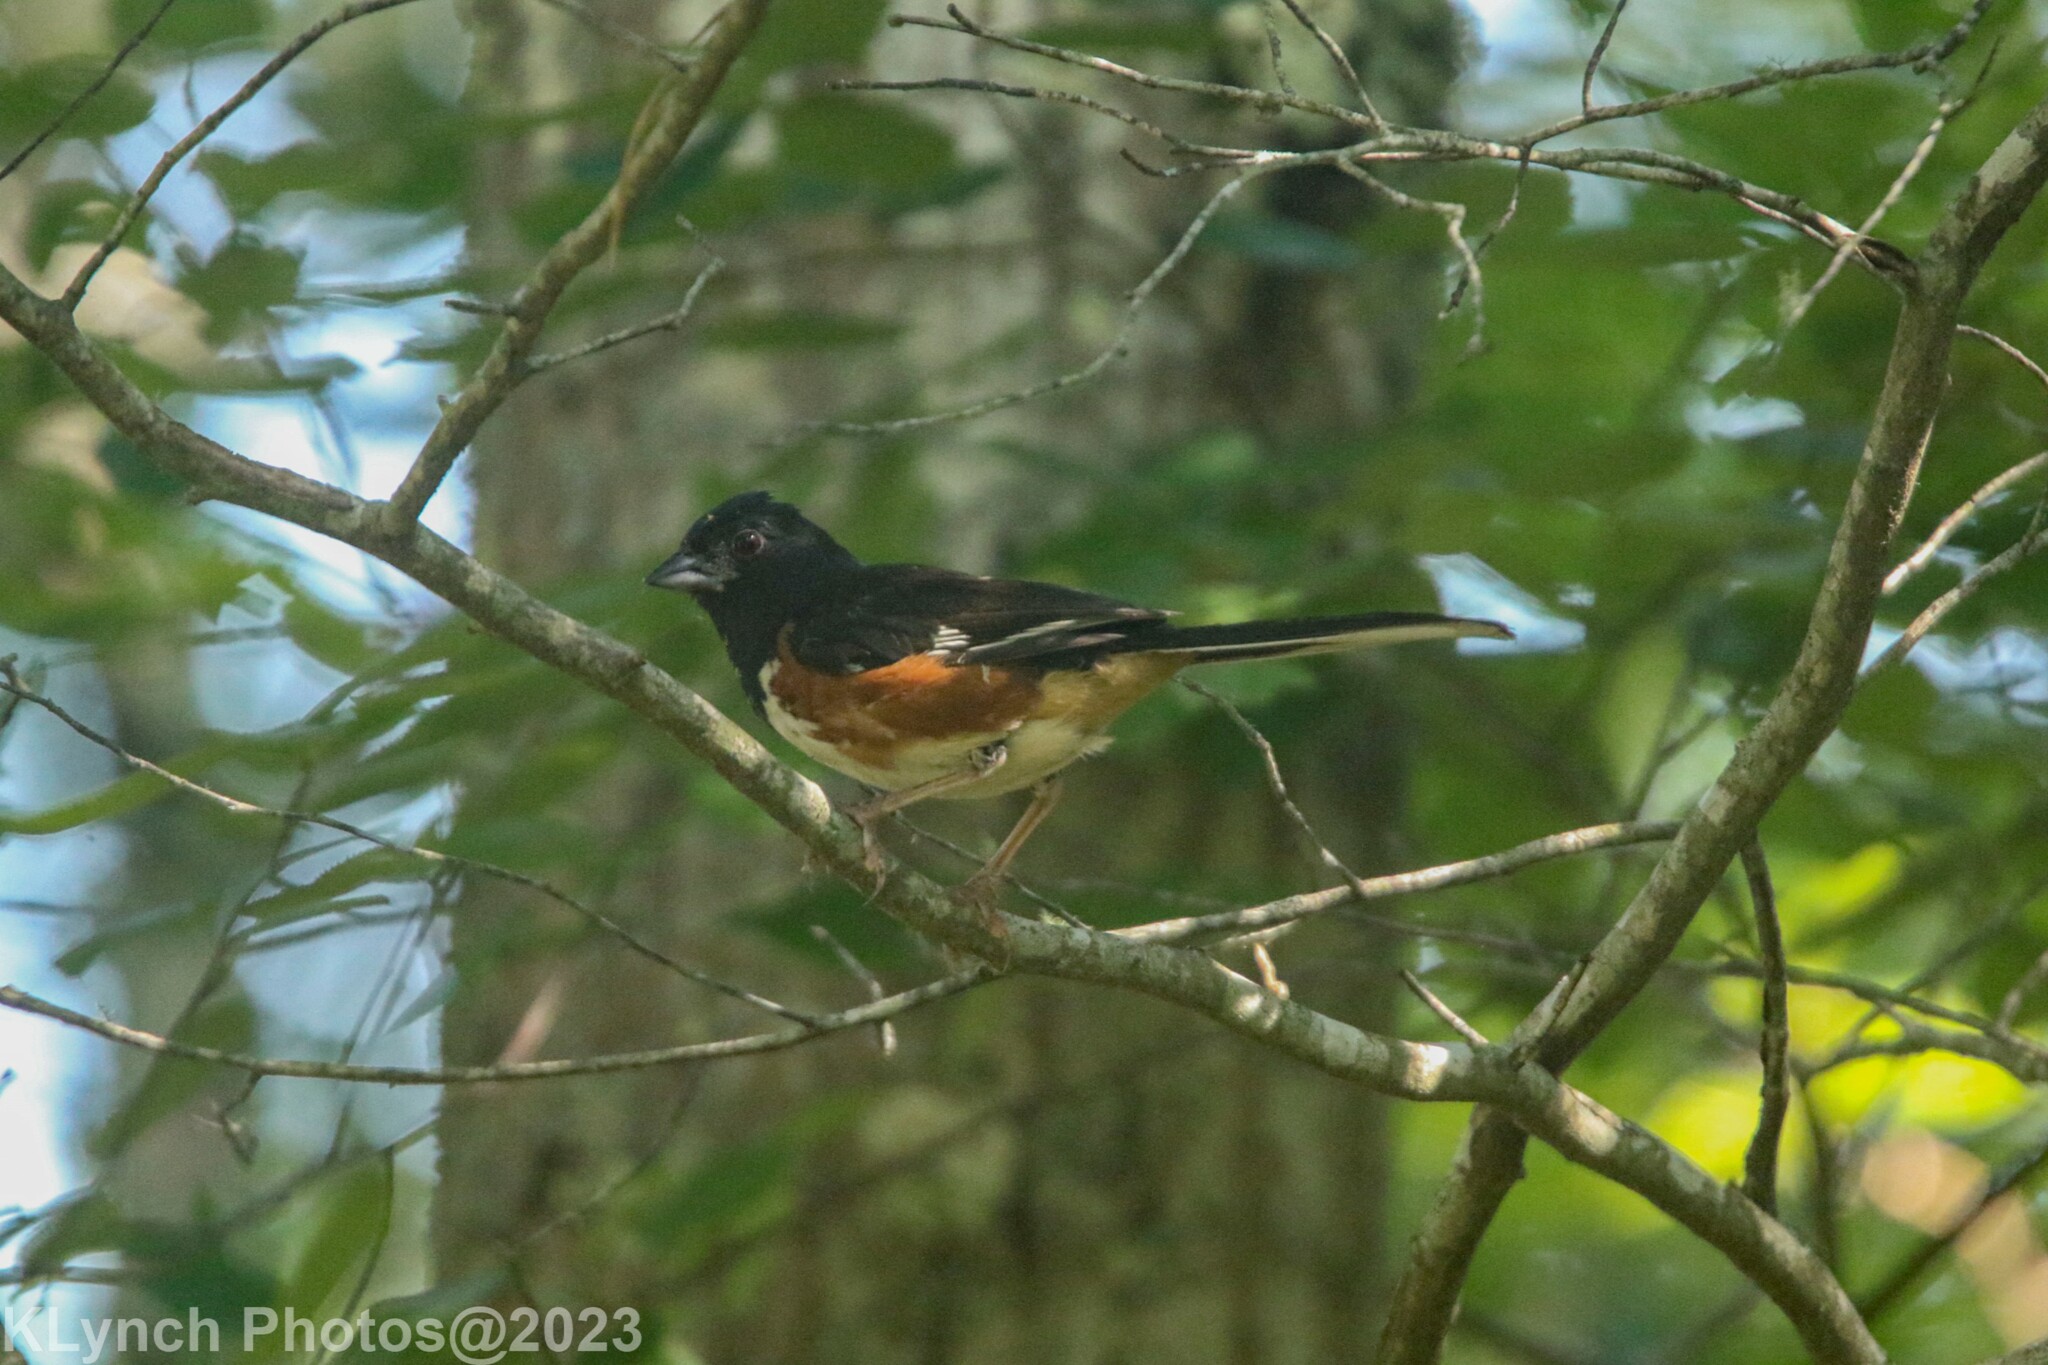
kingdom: Animalia
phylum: Chordata
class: Aves
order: Passeriformes
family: Passerellidae
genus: Pipilo
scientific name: Pipilo erythrophthalmus
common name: Eastern towhee
